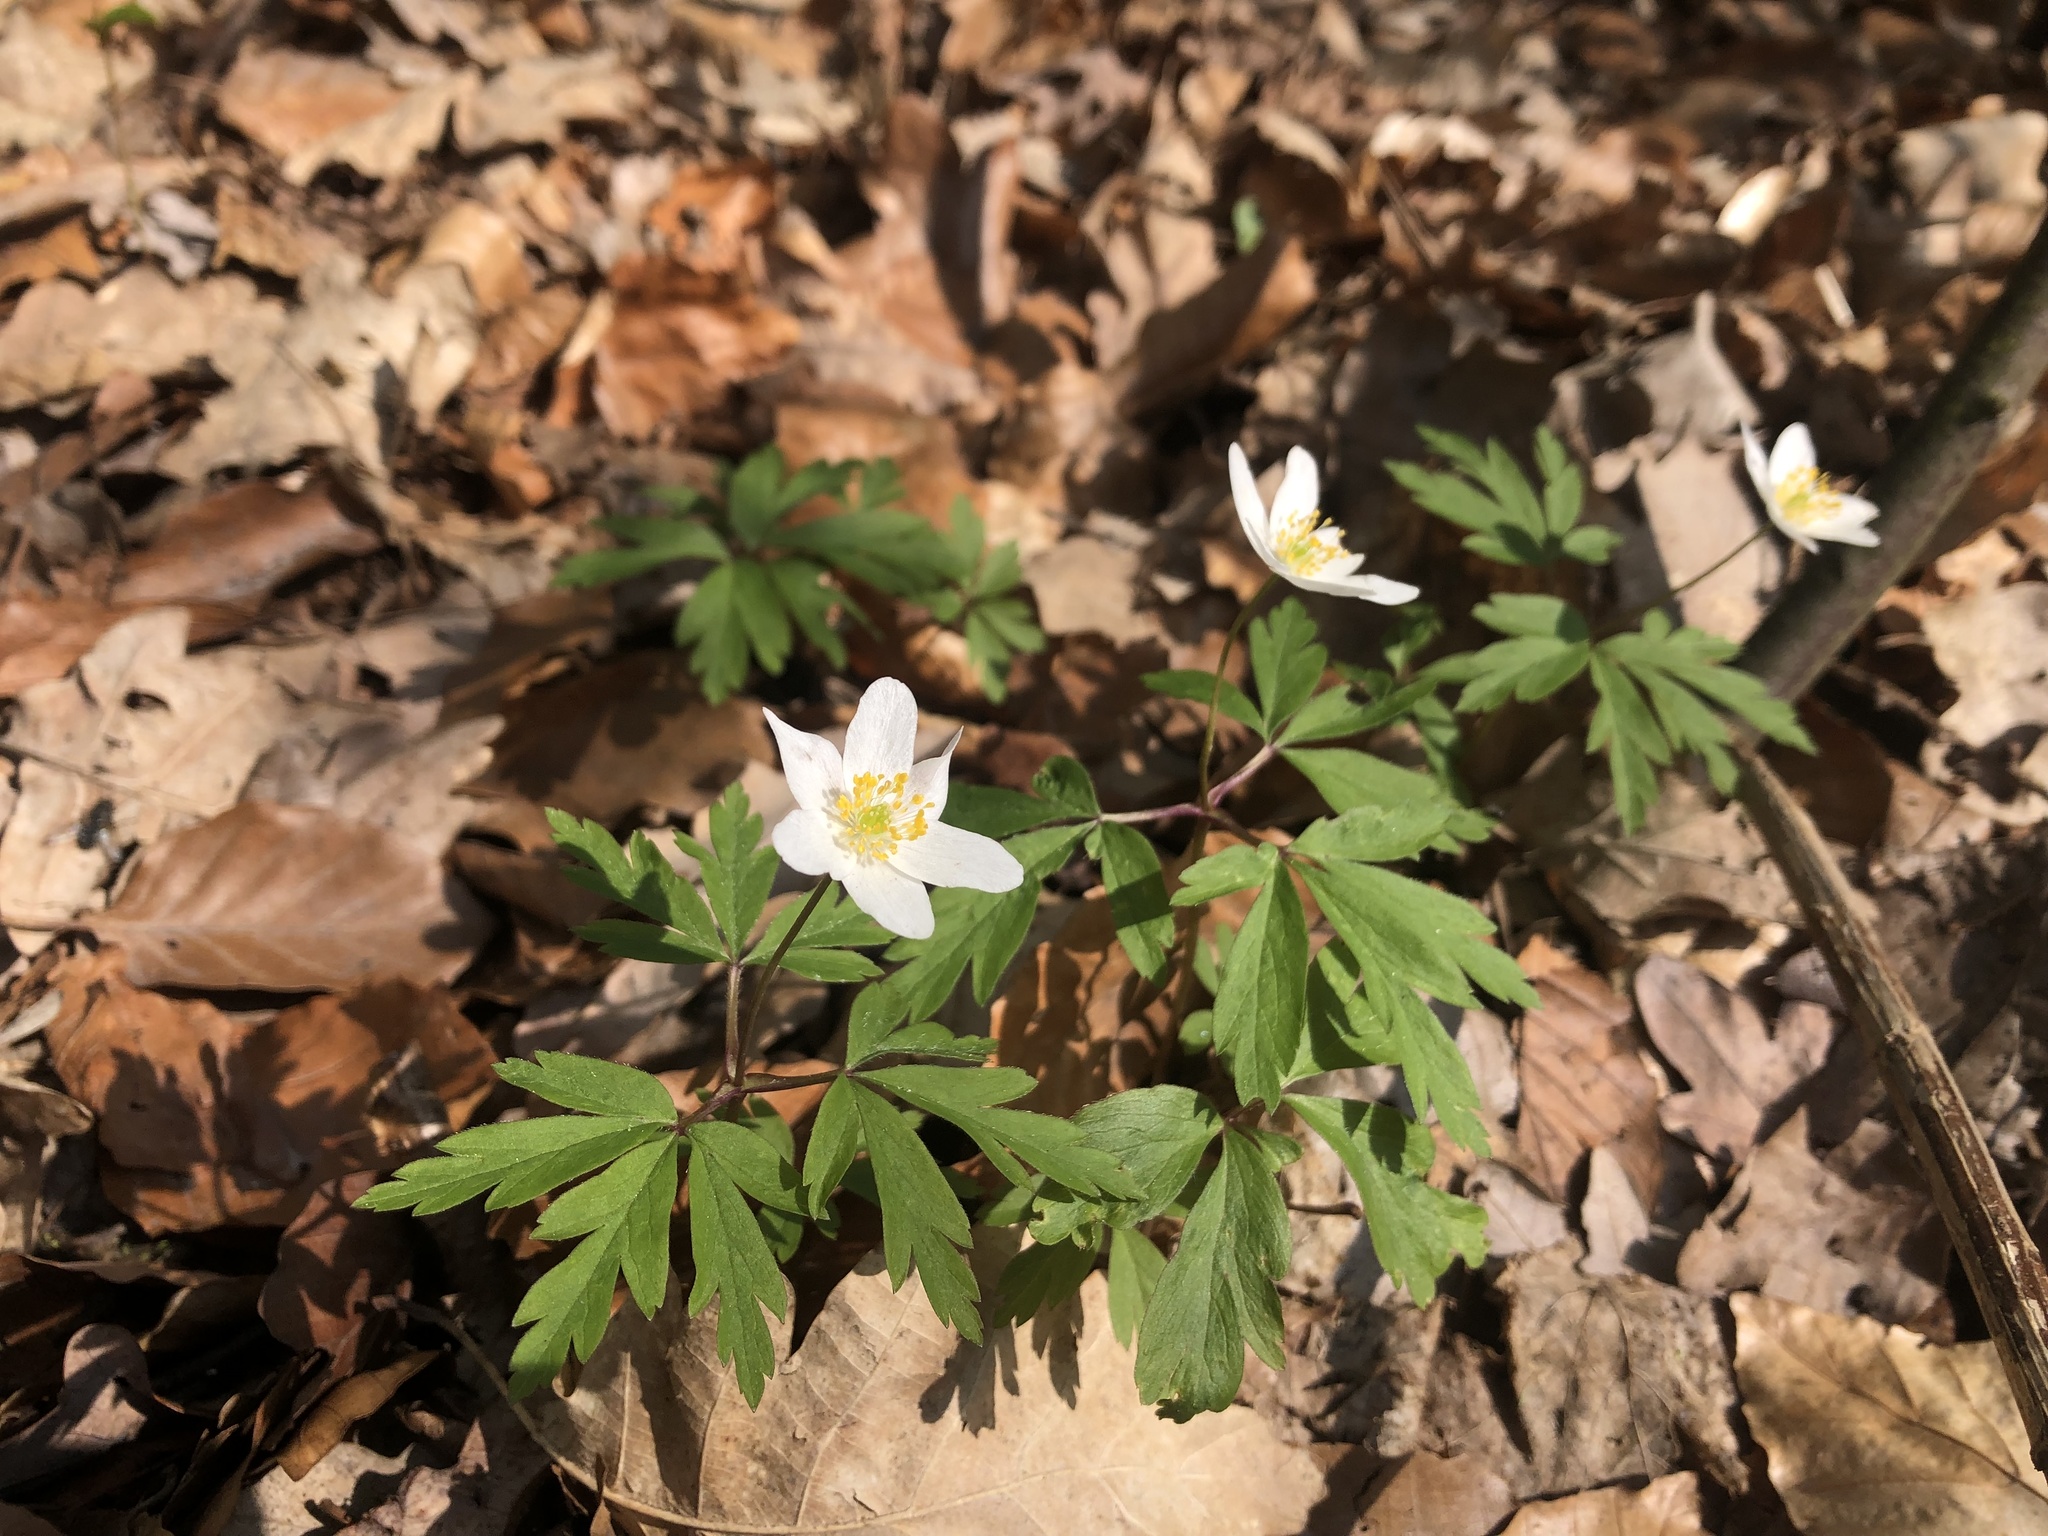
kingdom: Plantae
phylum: Tracheophyta
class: Magnoliopsida
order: Ranunculales
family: Ranunculaceae
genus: Anemone
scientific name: Anemone nemorosa
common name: Wood anemone
